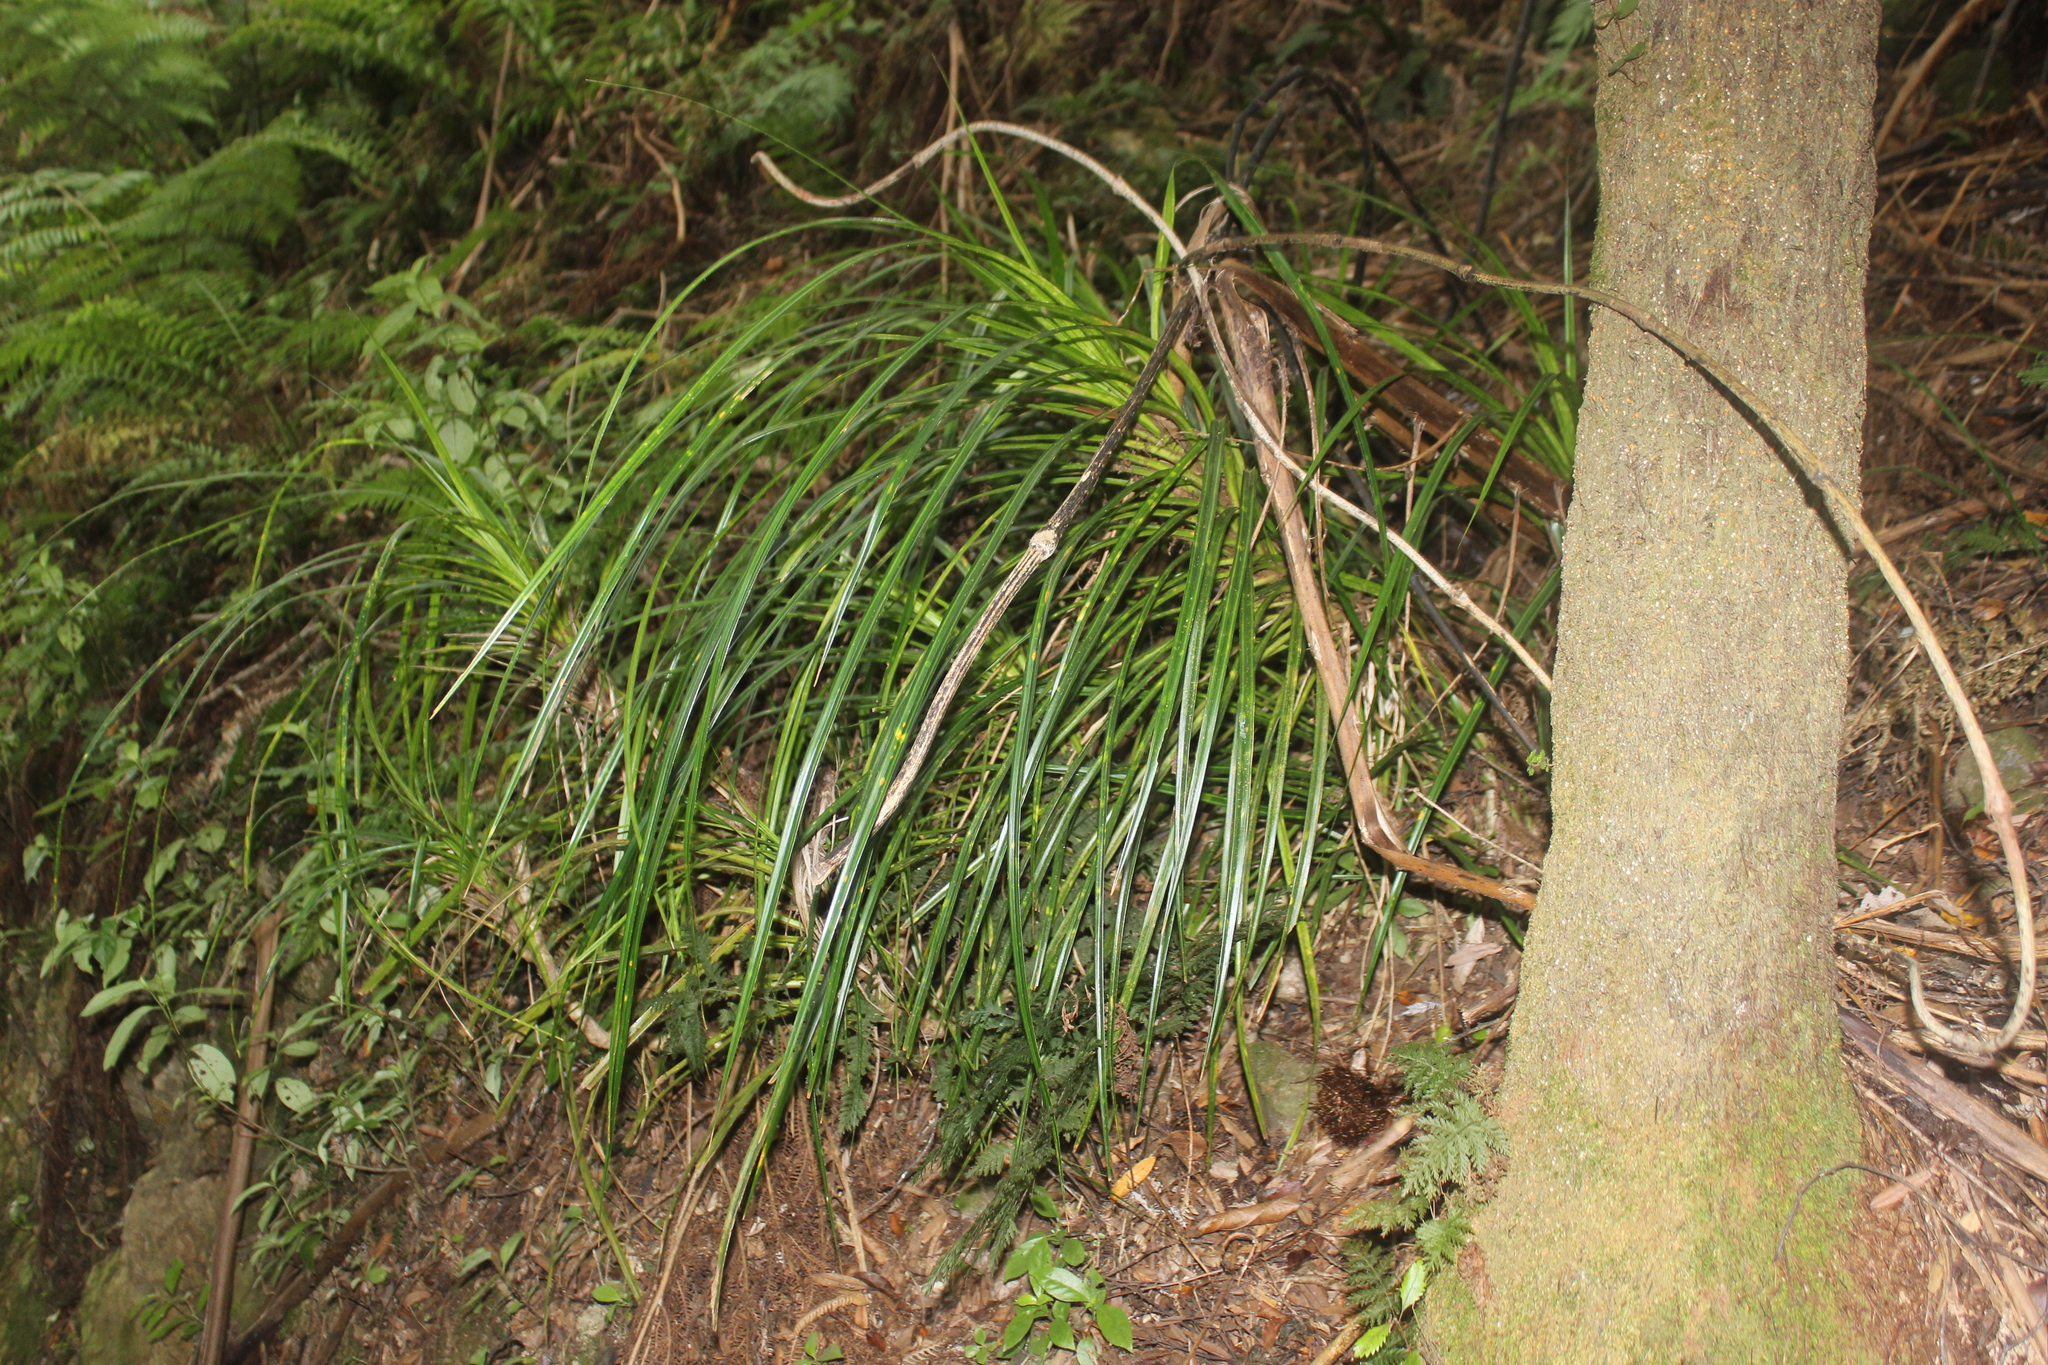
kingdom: Plantae
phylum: Tracheophyta
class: Liliopsida
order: Pandanales
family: Pandanaceae
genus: Freycinetia
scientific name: Freycinetia banksii
